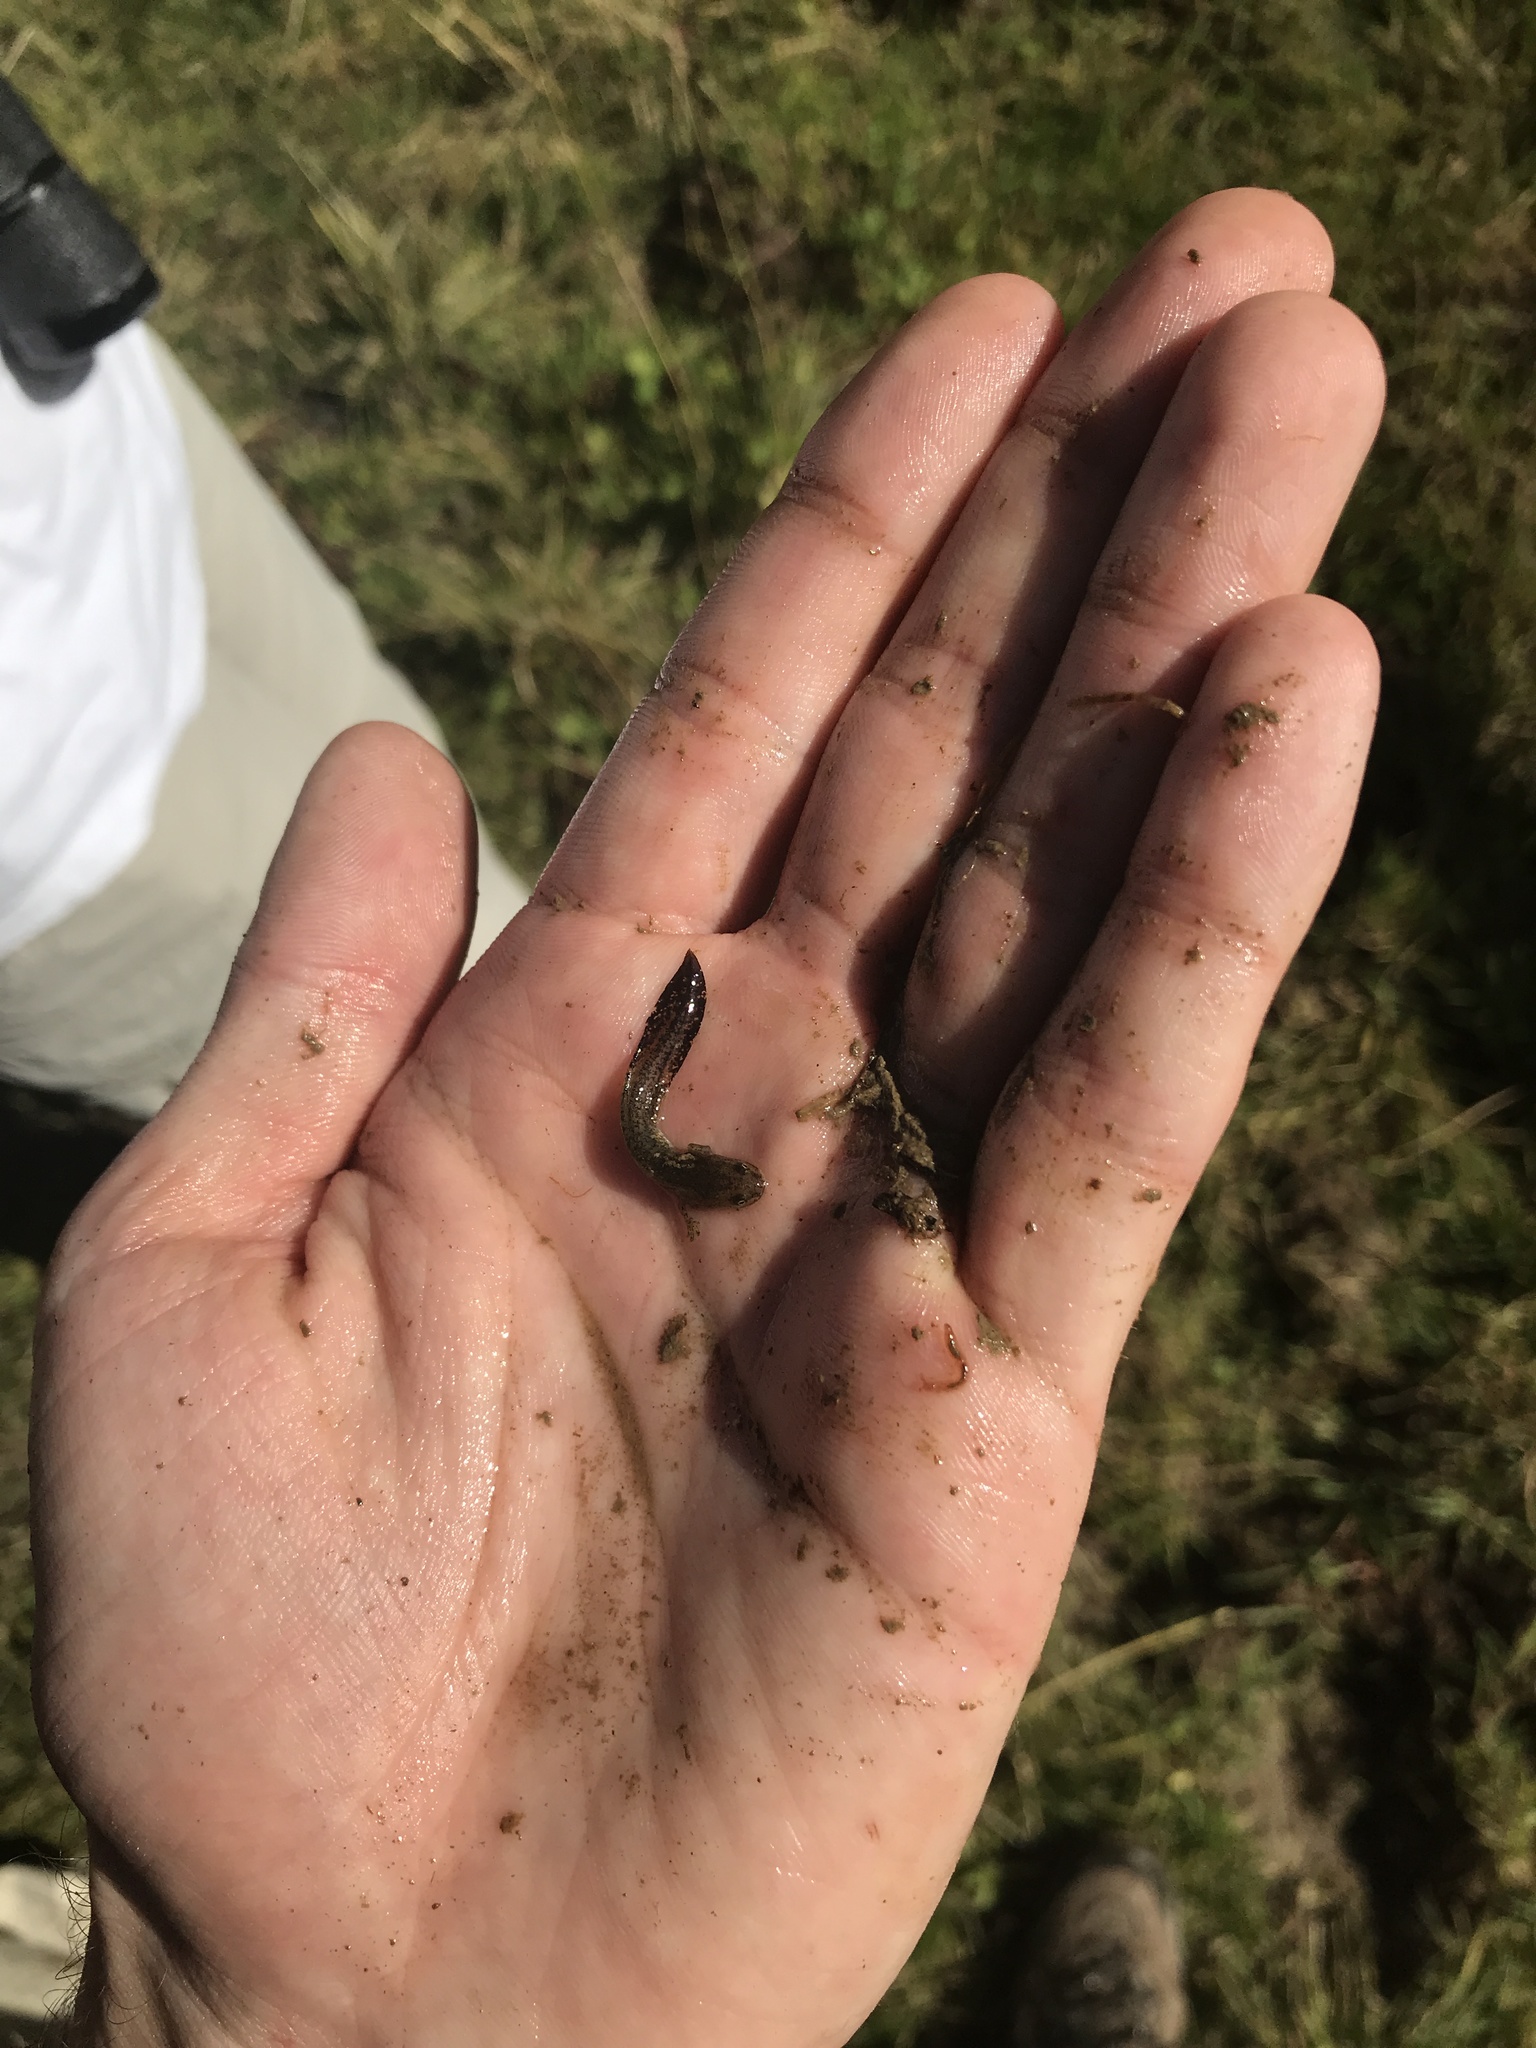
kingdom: Animalia
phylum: Chordata
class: Amphibia
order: Caudata
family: Salamandridae
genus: Ichthyosaura
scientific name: Ichthyosaura alpestris
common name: Alpine newt
